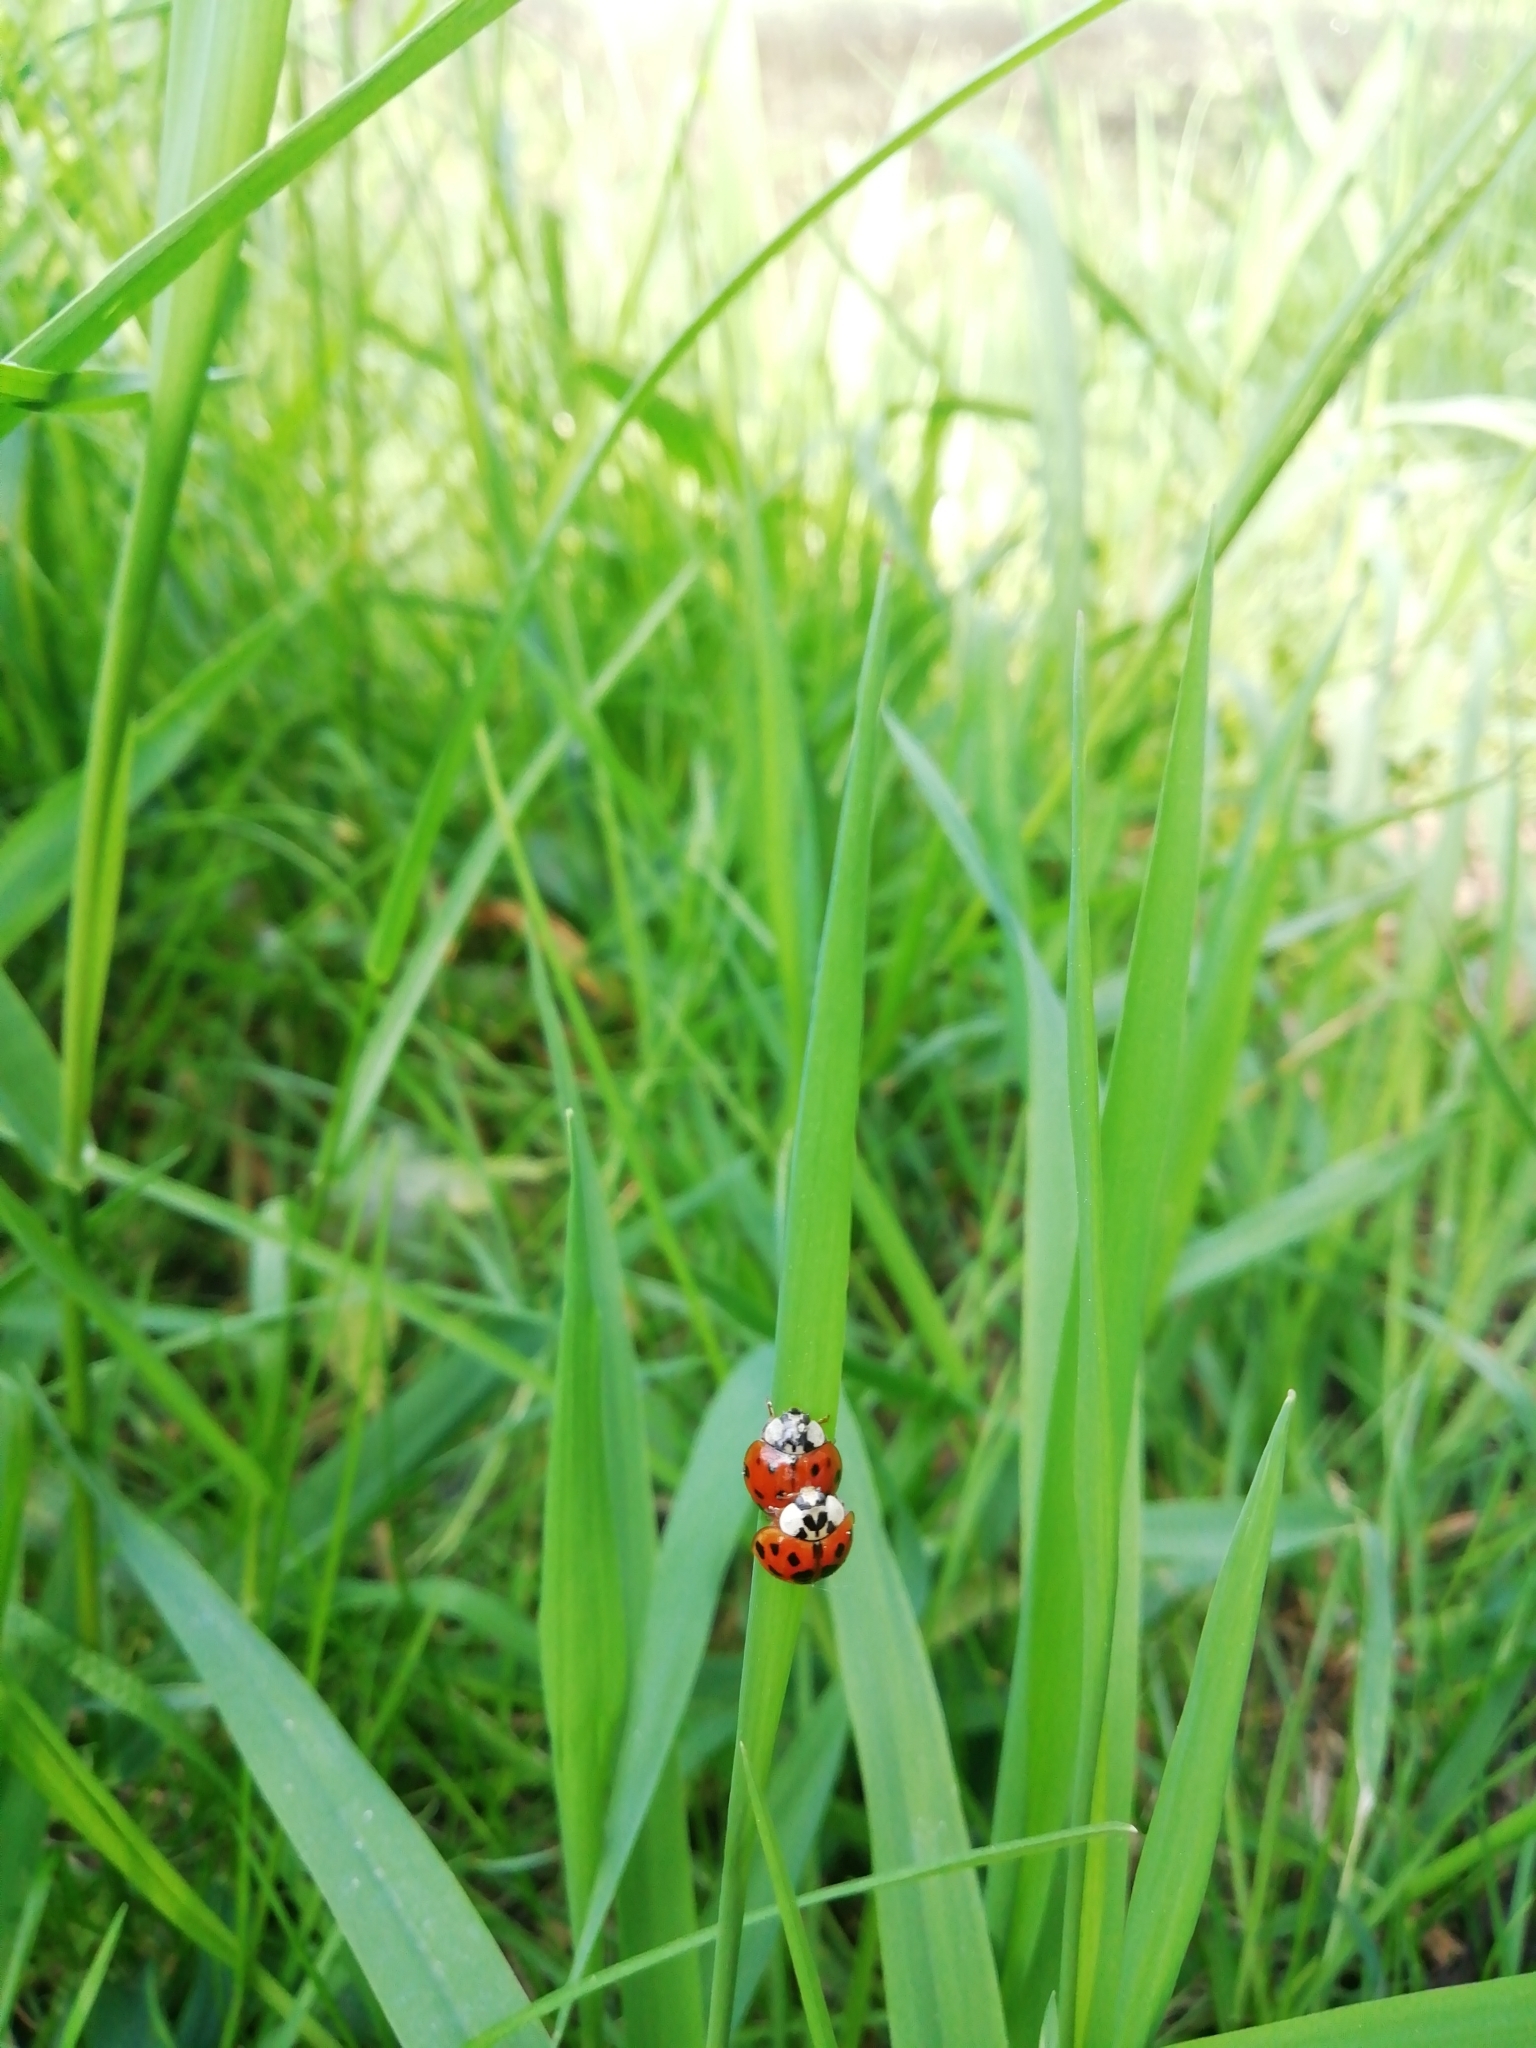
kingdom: Animalia
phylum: Arthropoda
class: Insecta
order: Coleoptera
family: Coccinellidae
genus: Harmonia
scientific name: Harmonia axyridis
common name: Harlequin ladybird
